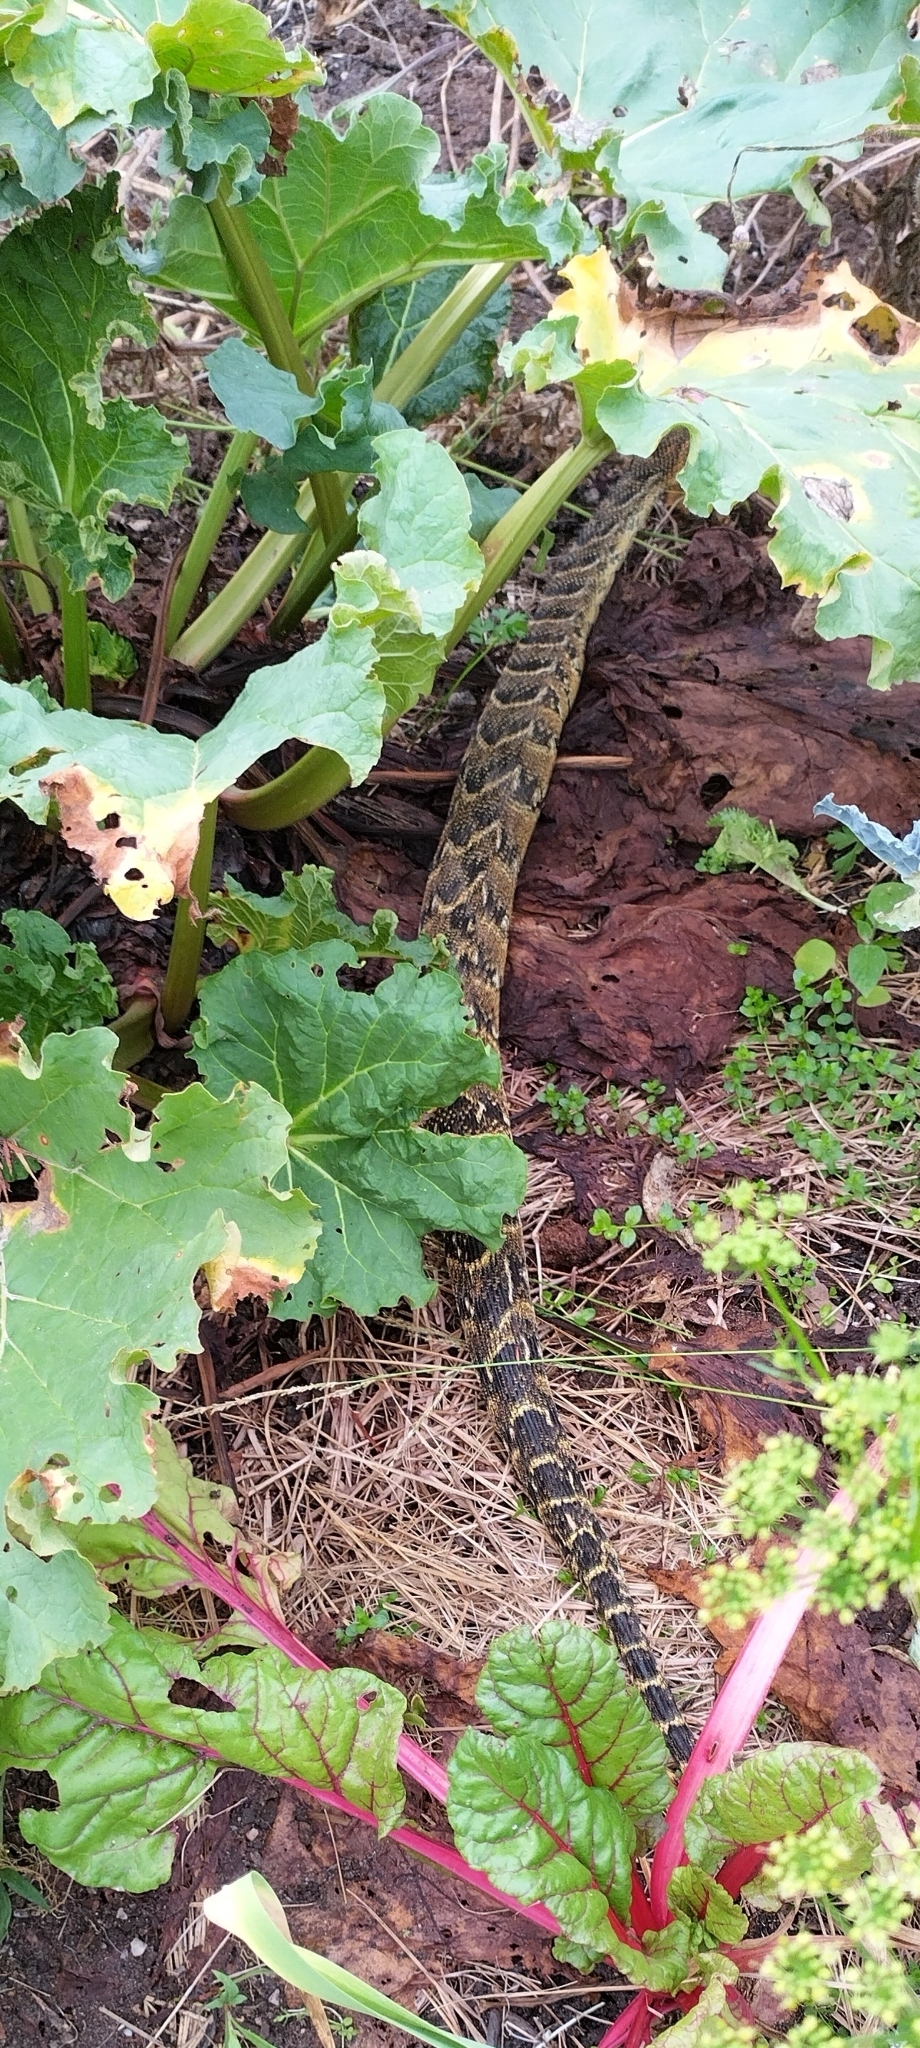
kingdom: Animalia
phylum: Chordata
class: Squamata
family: Viperidae
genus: Bitis
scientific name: Bitis arietans
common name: Puff adder
